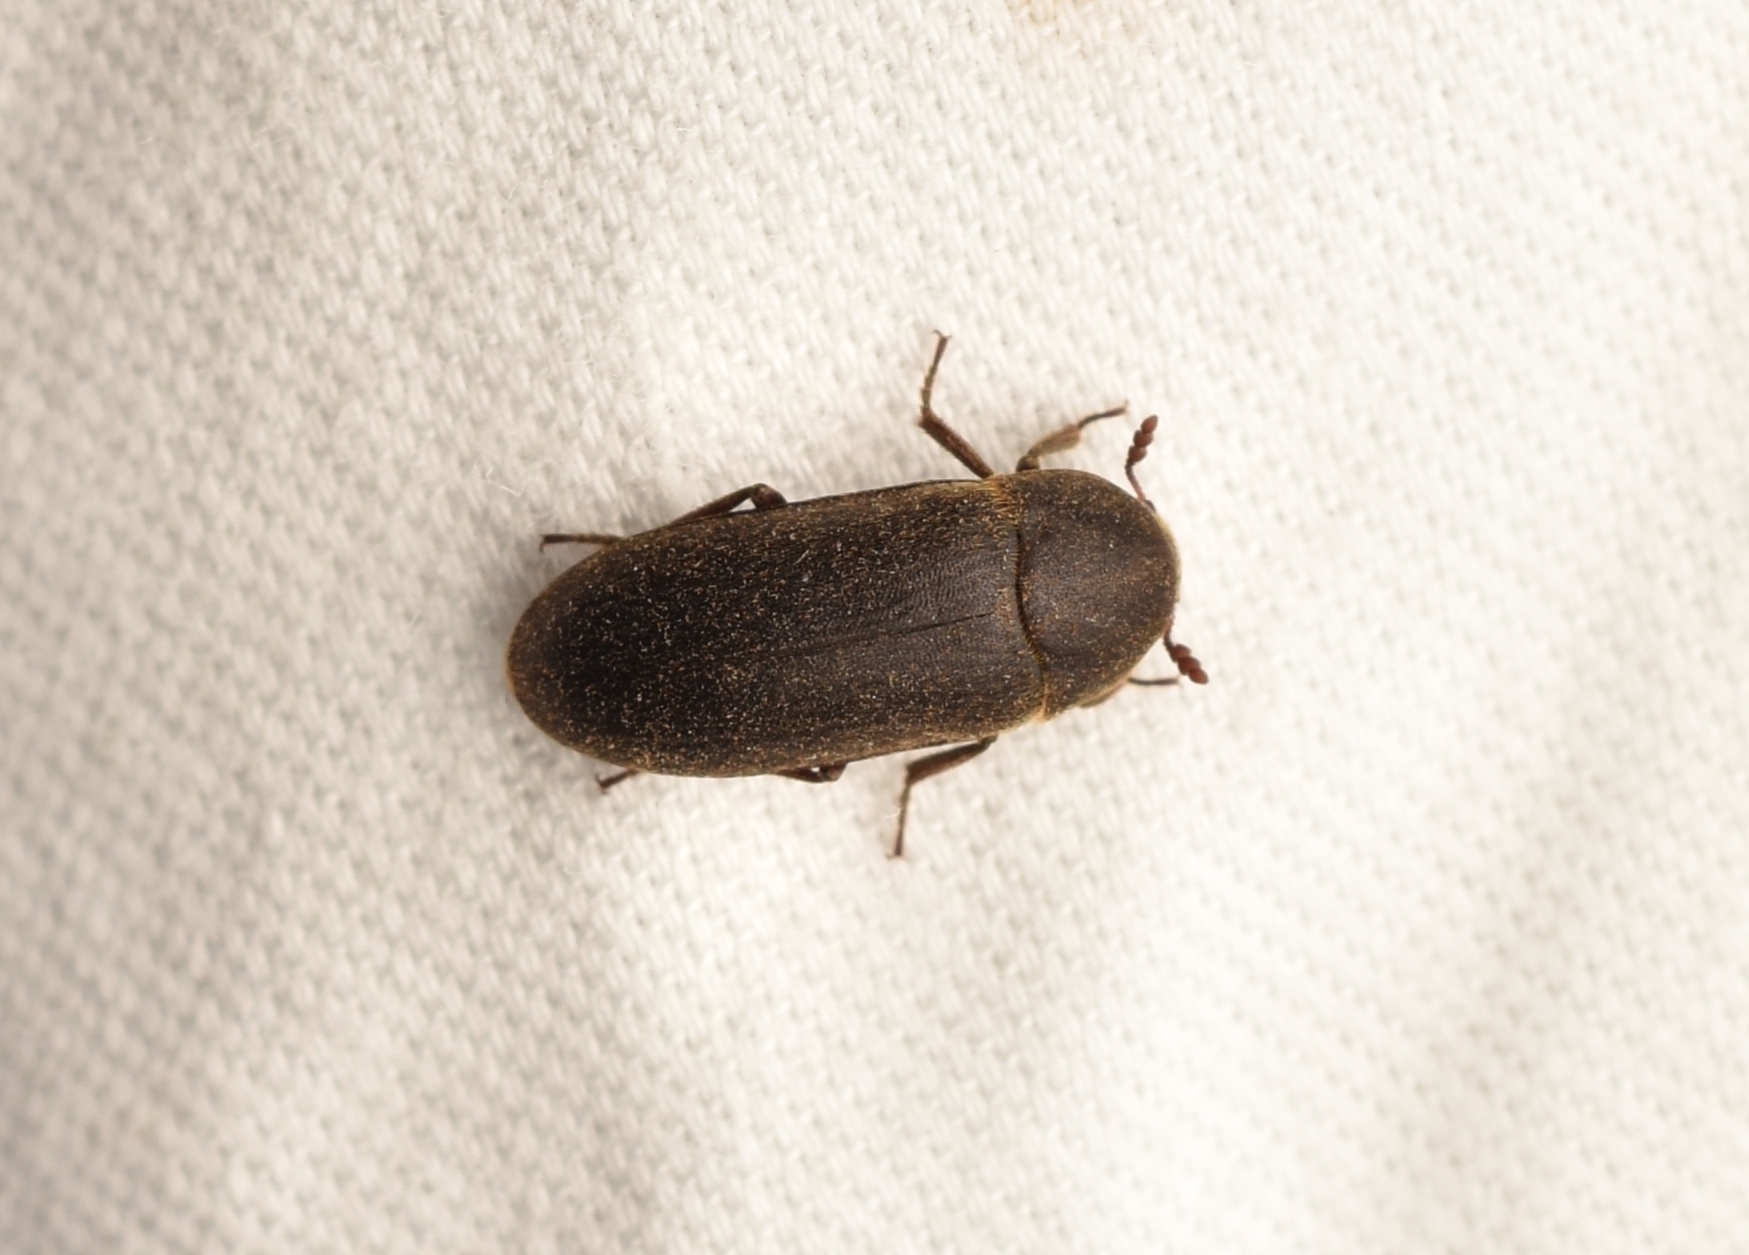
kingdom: Animalia
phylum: Arthropoda
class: Insecta
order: Coleoptera
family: Dermestidae
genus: Dermestes
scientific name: Dermestes nidum
